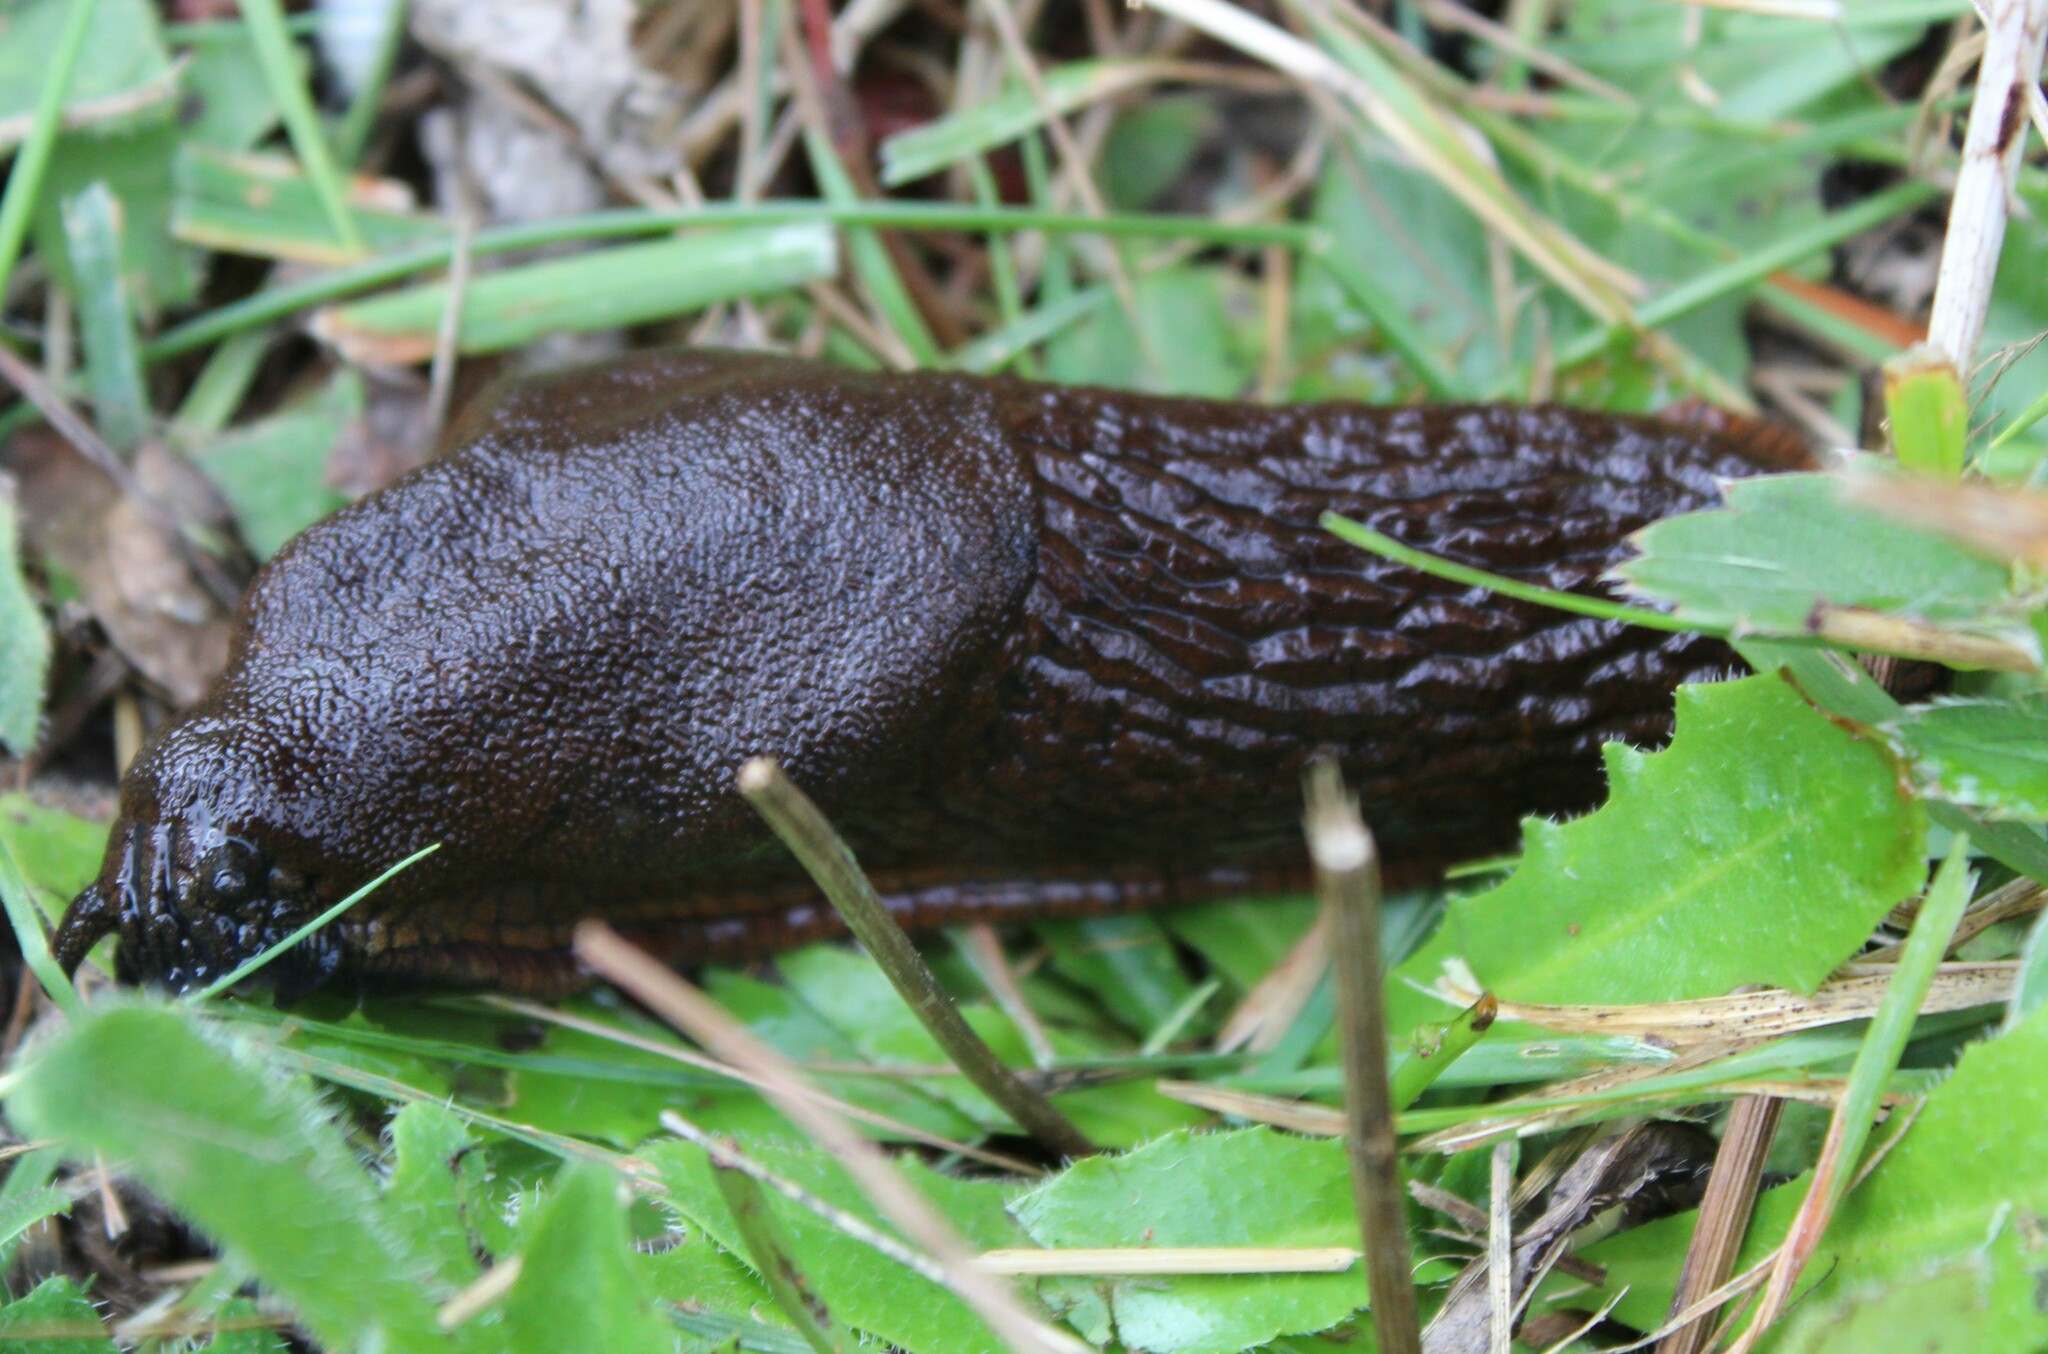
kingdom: Animalia
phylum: Mollusca
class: Gastropoda
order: Stylommatophora
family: Arionidae
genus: Arion
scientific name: Arion
